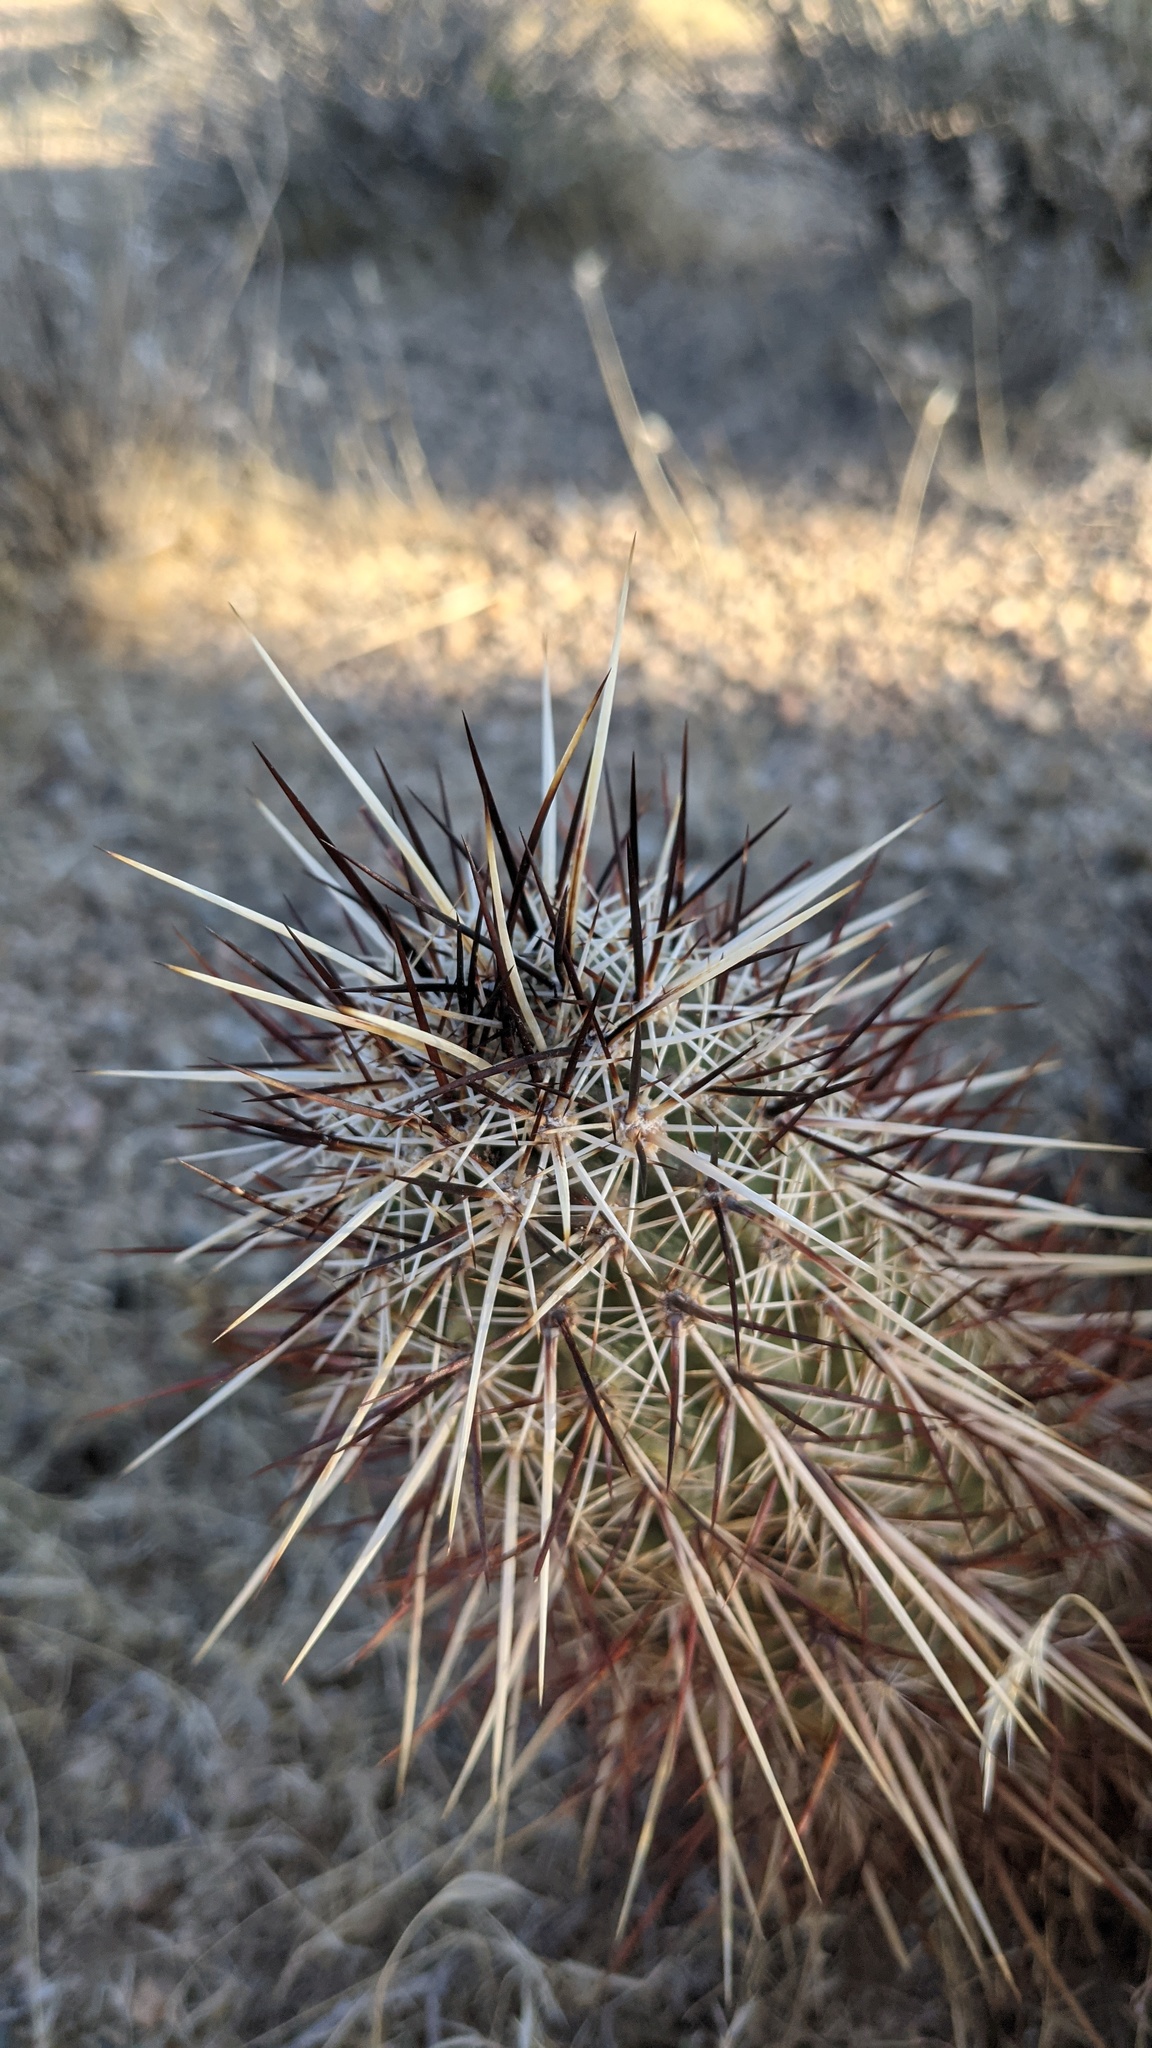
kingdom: Plantae
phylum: Tracheophyta
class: Magnoliopsida
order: Caryophyllales
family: Cactaceae
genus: Echinocereus
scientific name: Echinocereus engelmannii
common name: Engelmann's hedgehog cactus
